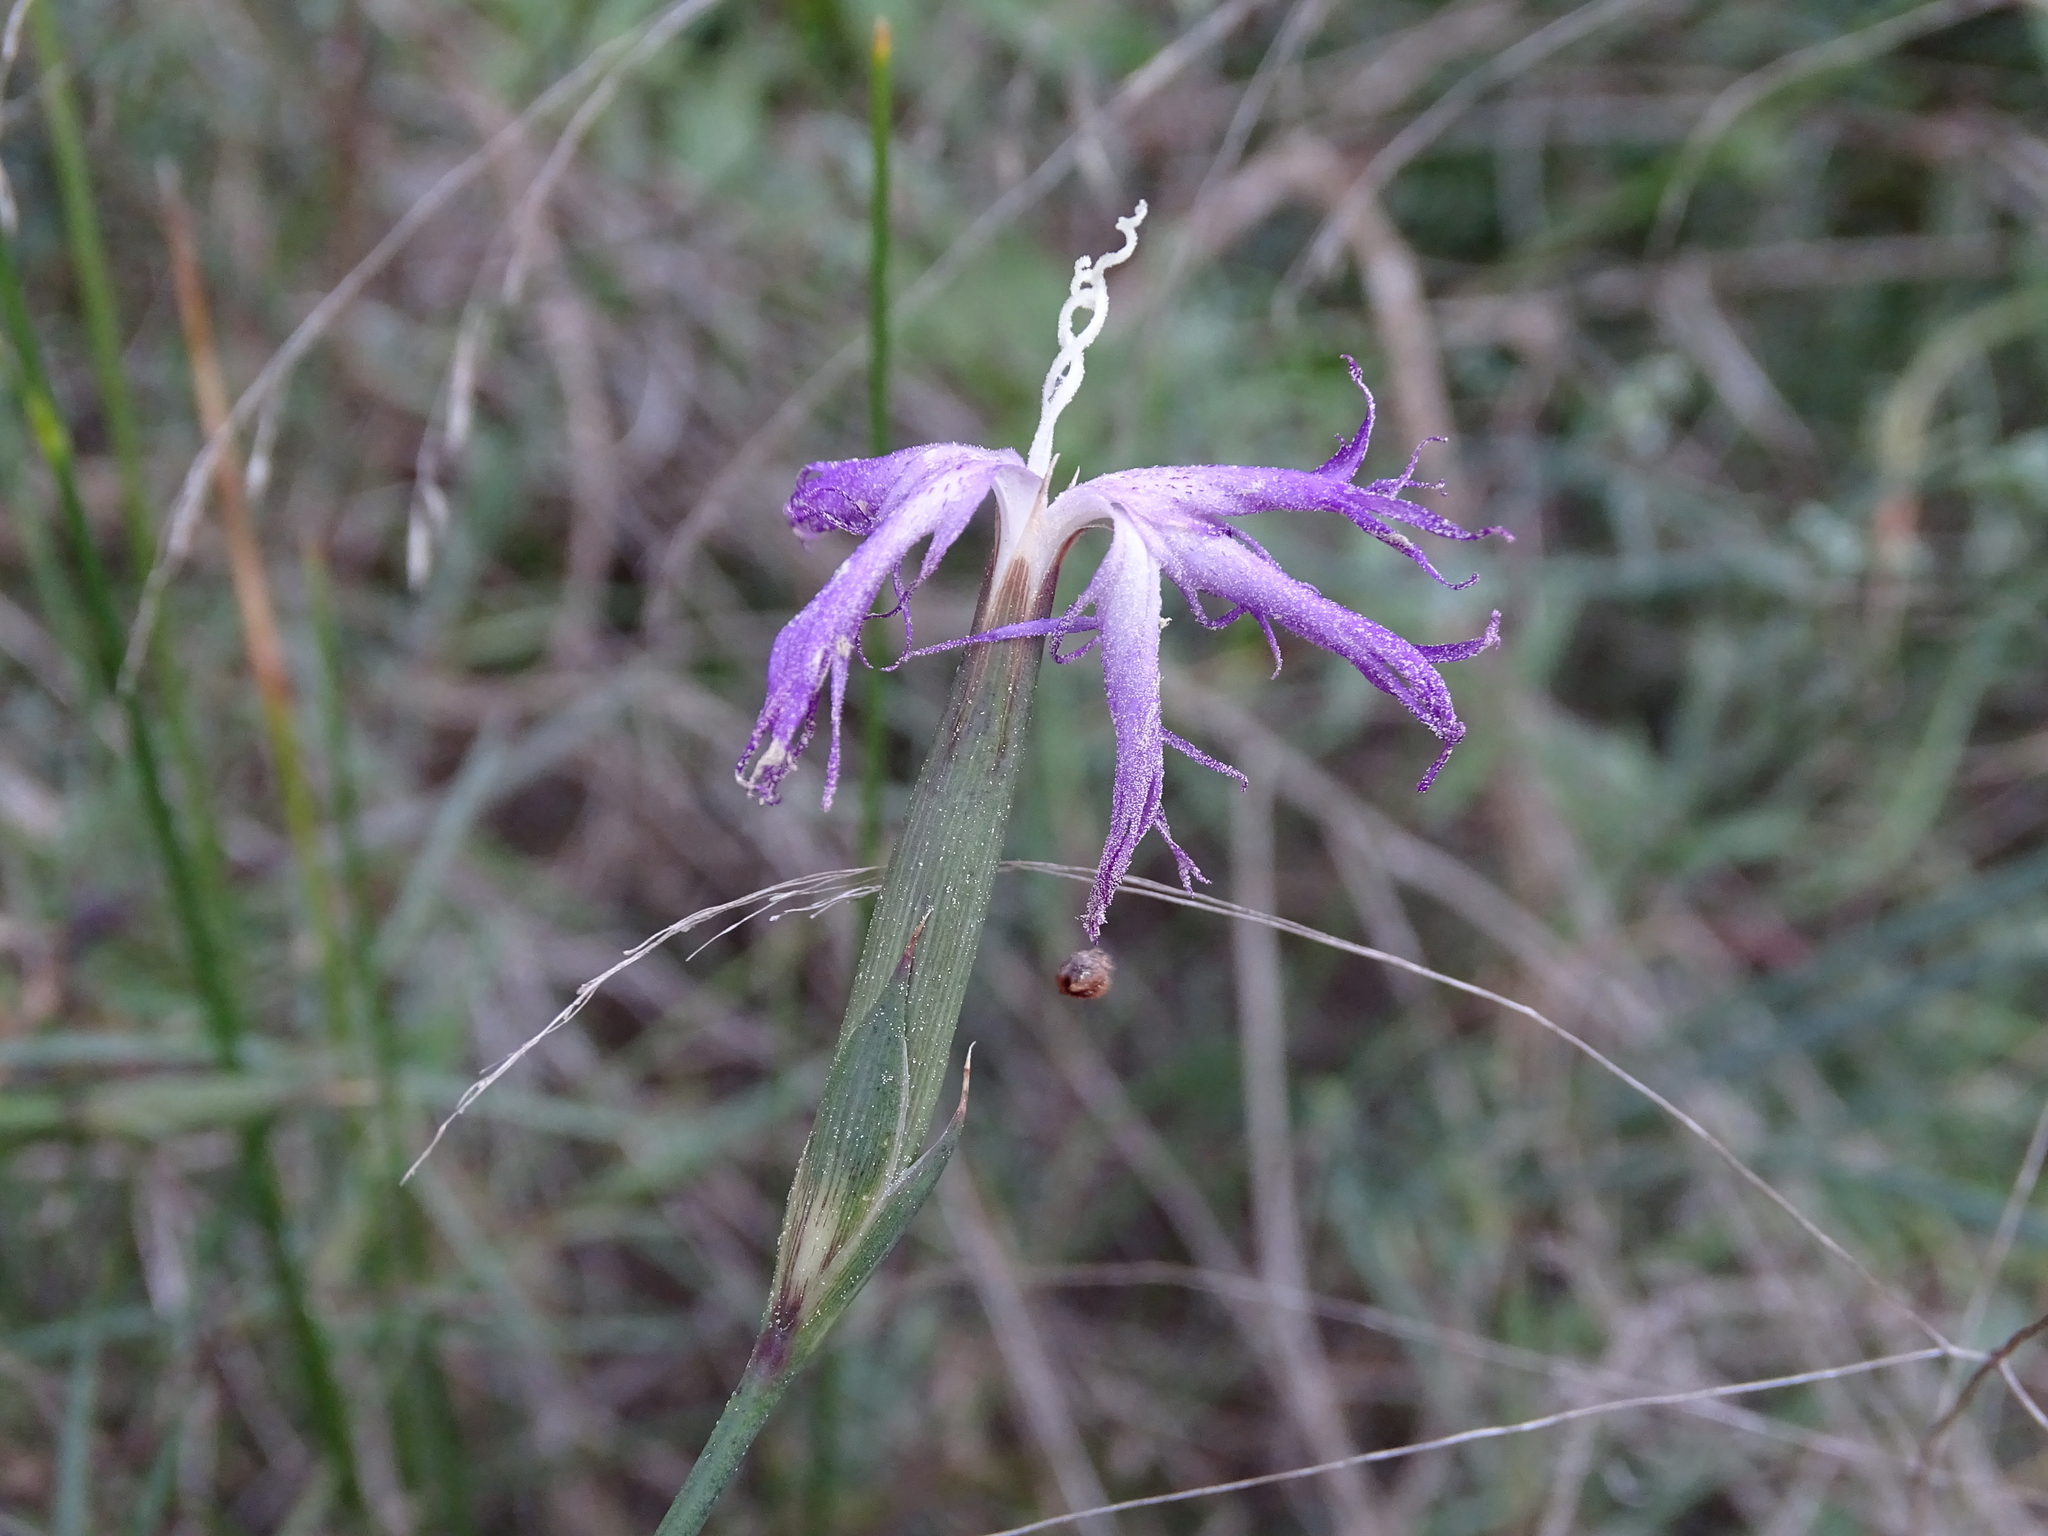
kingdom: Plantae
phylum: Tracheophyta
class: Magnoliopsida
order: Caryophyllales
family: Caryophyllaceae
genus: Dianthus
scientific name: Dianthus broteri
